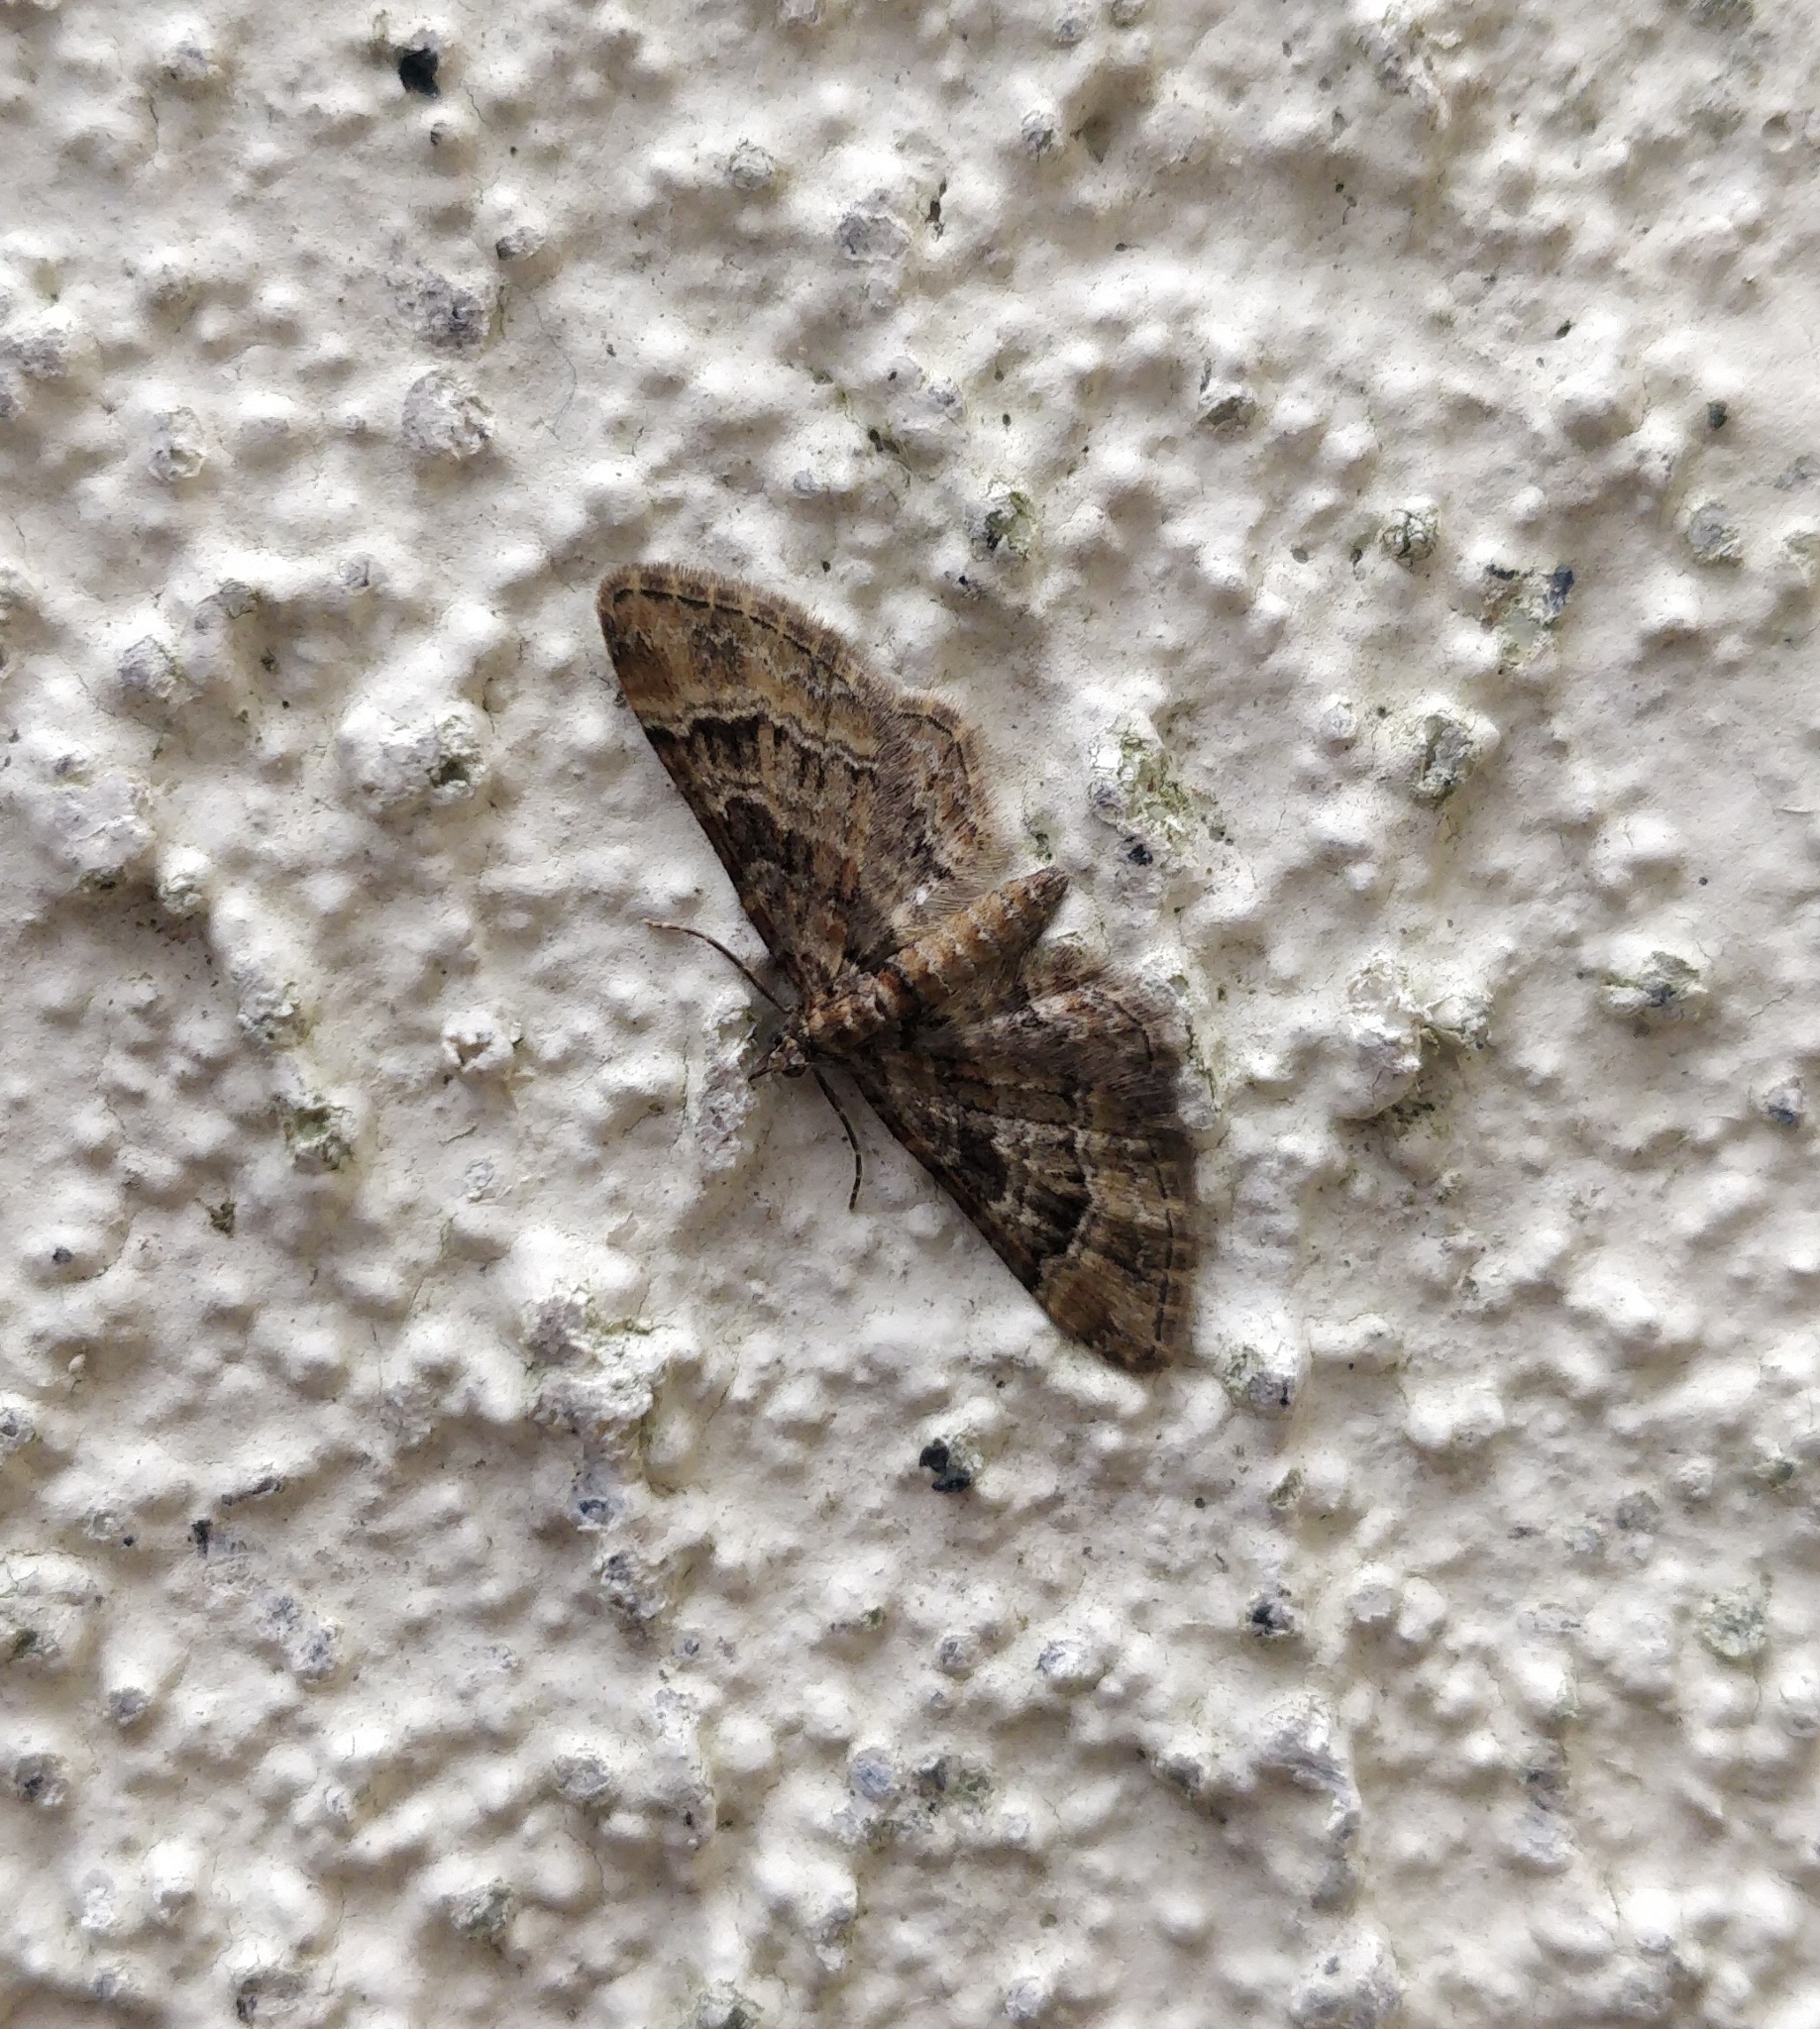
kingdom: Animalia
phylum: Arthropoda
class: Insecta
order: Lepidoptera
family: Geometridae
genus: Gymnoscelis
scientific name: Gymnoscelis rufifasciata
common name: Double-striped pug
